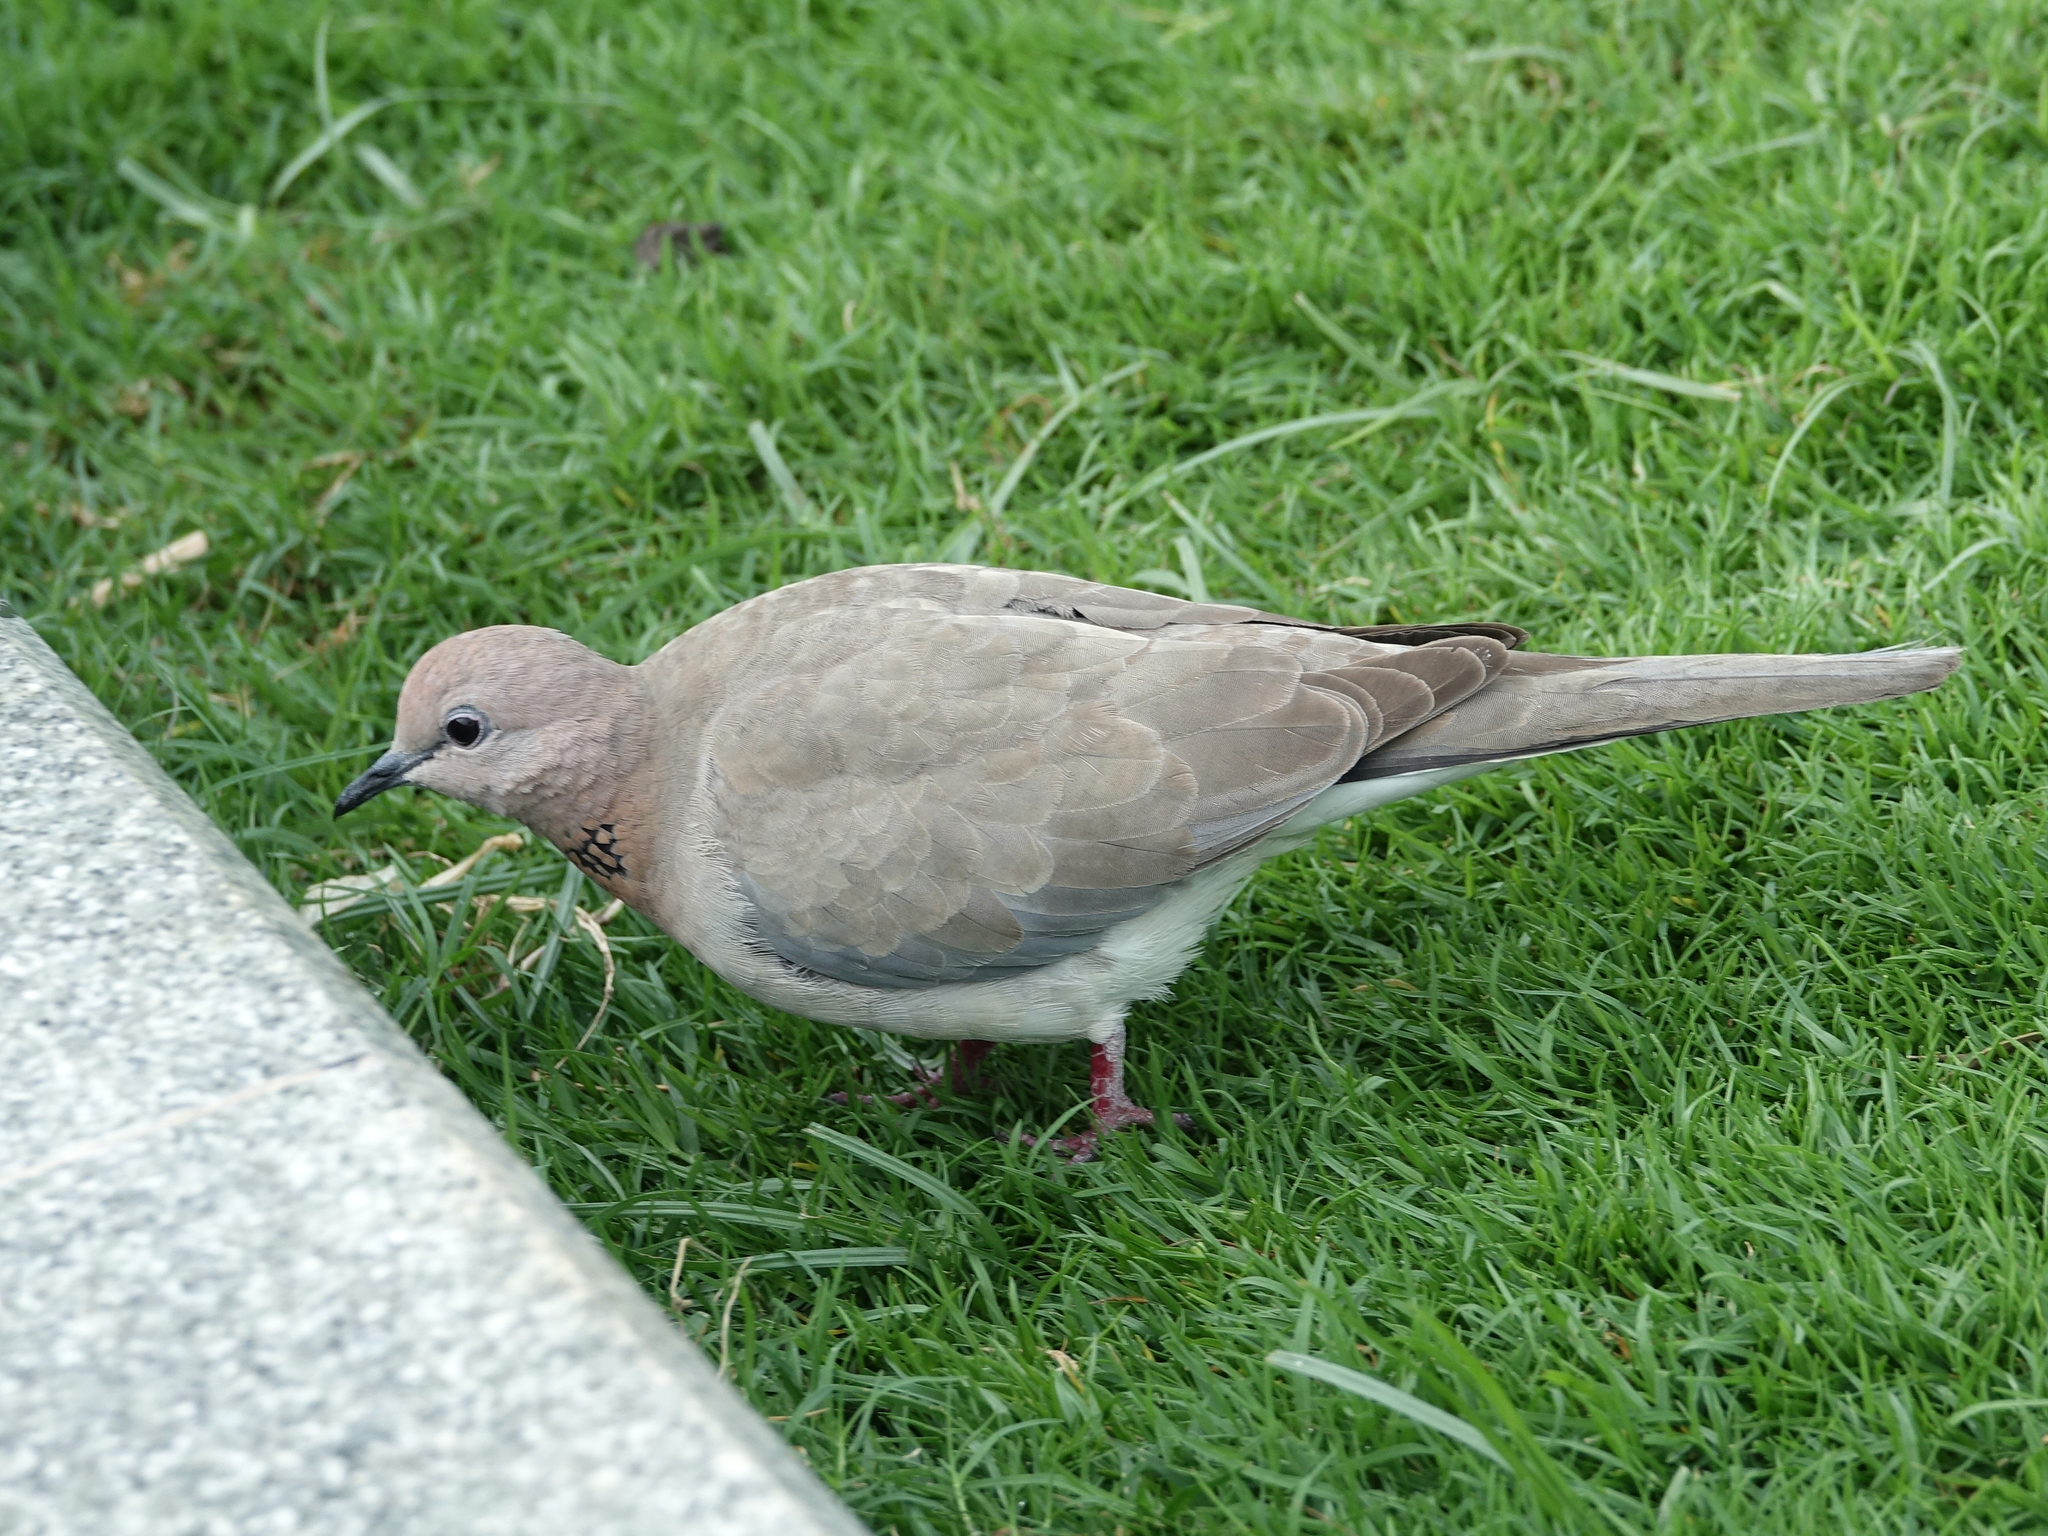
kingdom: Animalia
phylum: Chordata
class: Aves
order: Columbiformes
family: Columbidae
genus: Spilopelia
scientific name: Spilopelia senegalensis
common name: Laughing dove
